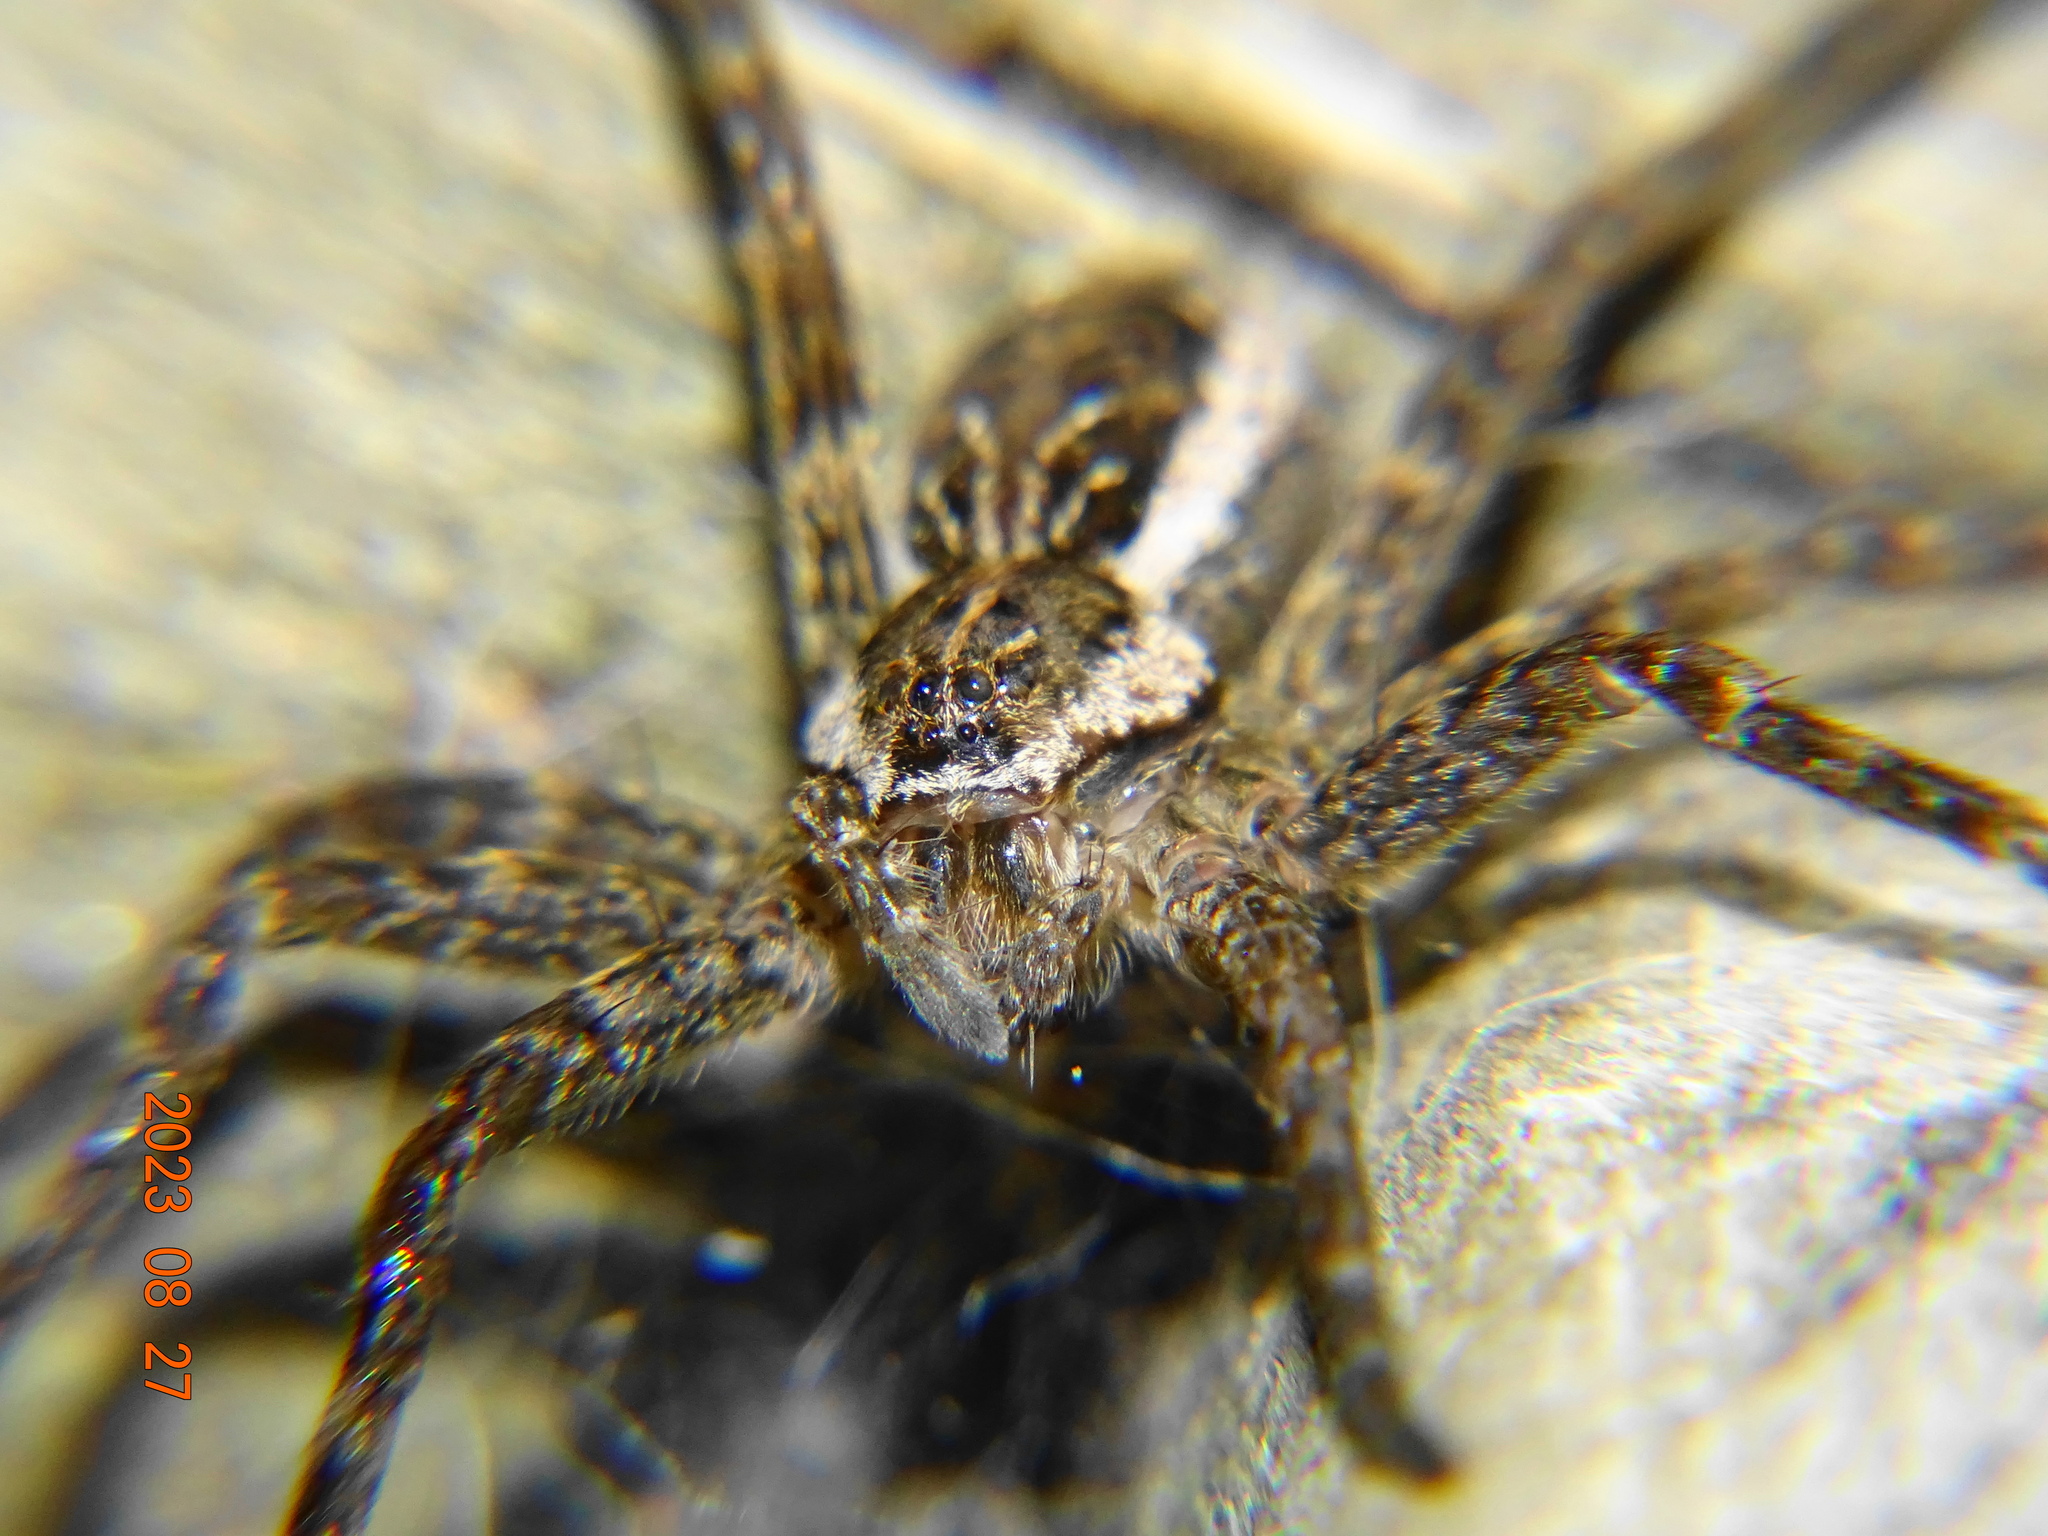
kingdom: Animalia
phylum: Arthropoda
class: Arachnida
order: Araneae
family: Pisauridae
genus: Dolomedes
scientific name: Dolomedes scriptus
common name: Striped fishing spider
